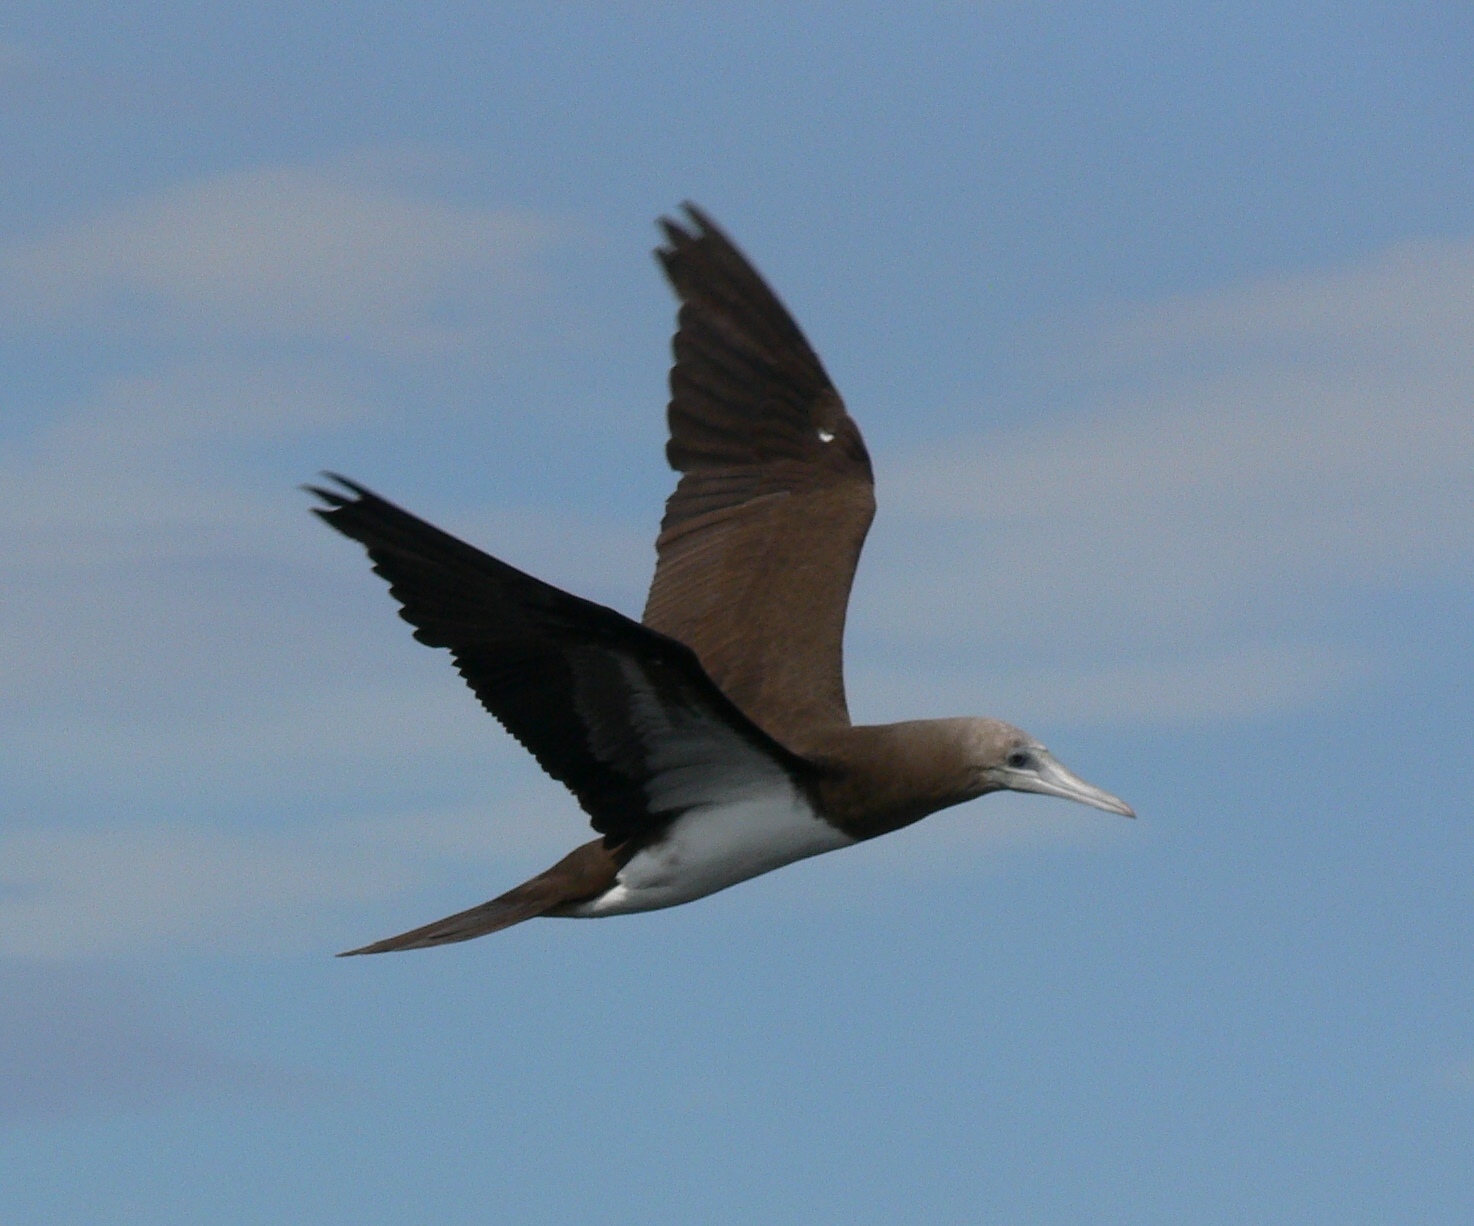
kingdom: Animalia
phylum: Chordata
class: Aves
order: Suliformes
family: Sulidae
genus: Sula
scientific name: Sula leucogaster
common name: Brown booby
